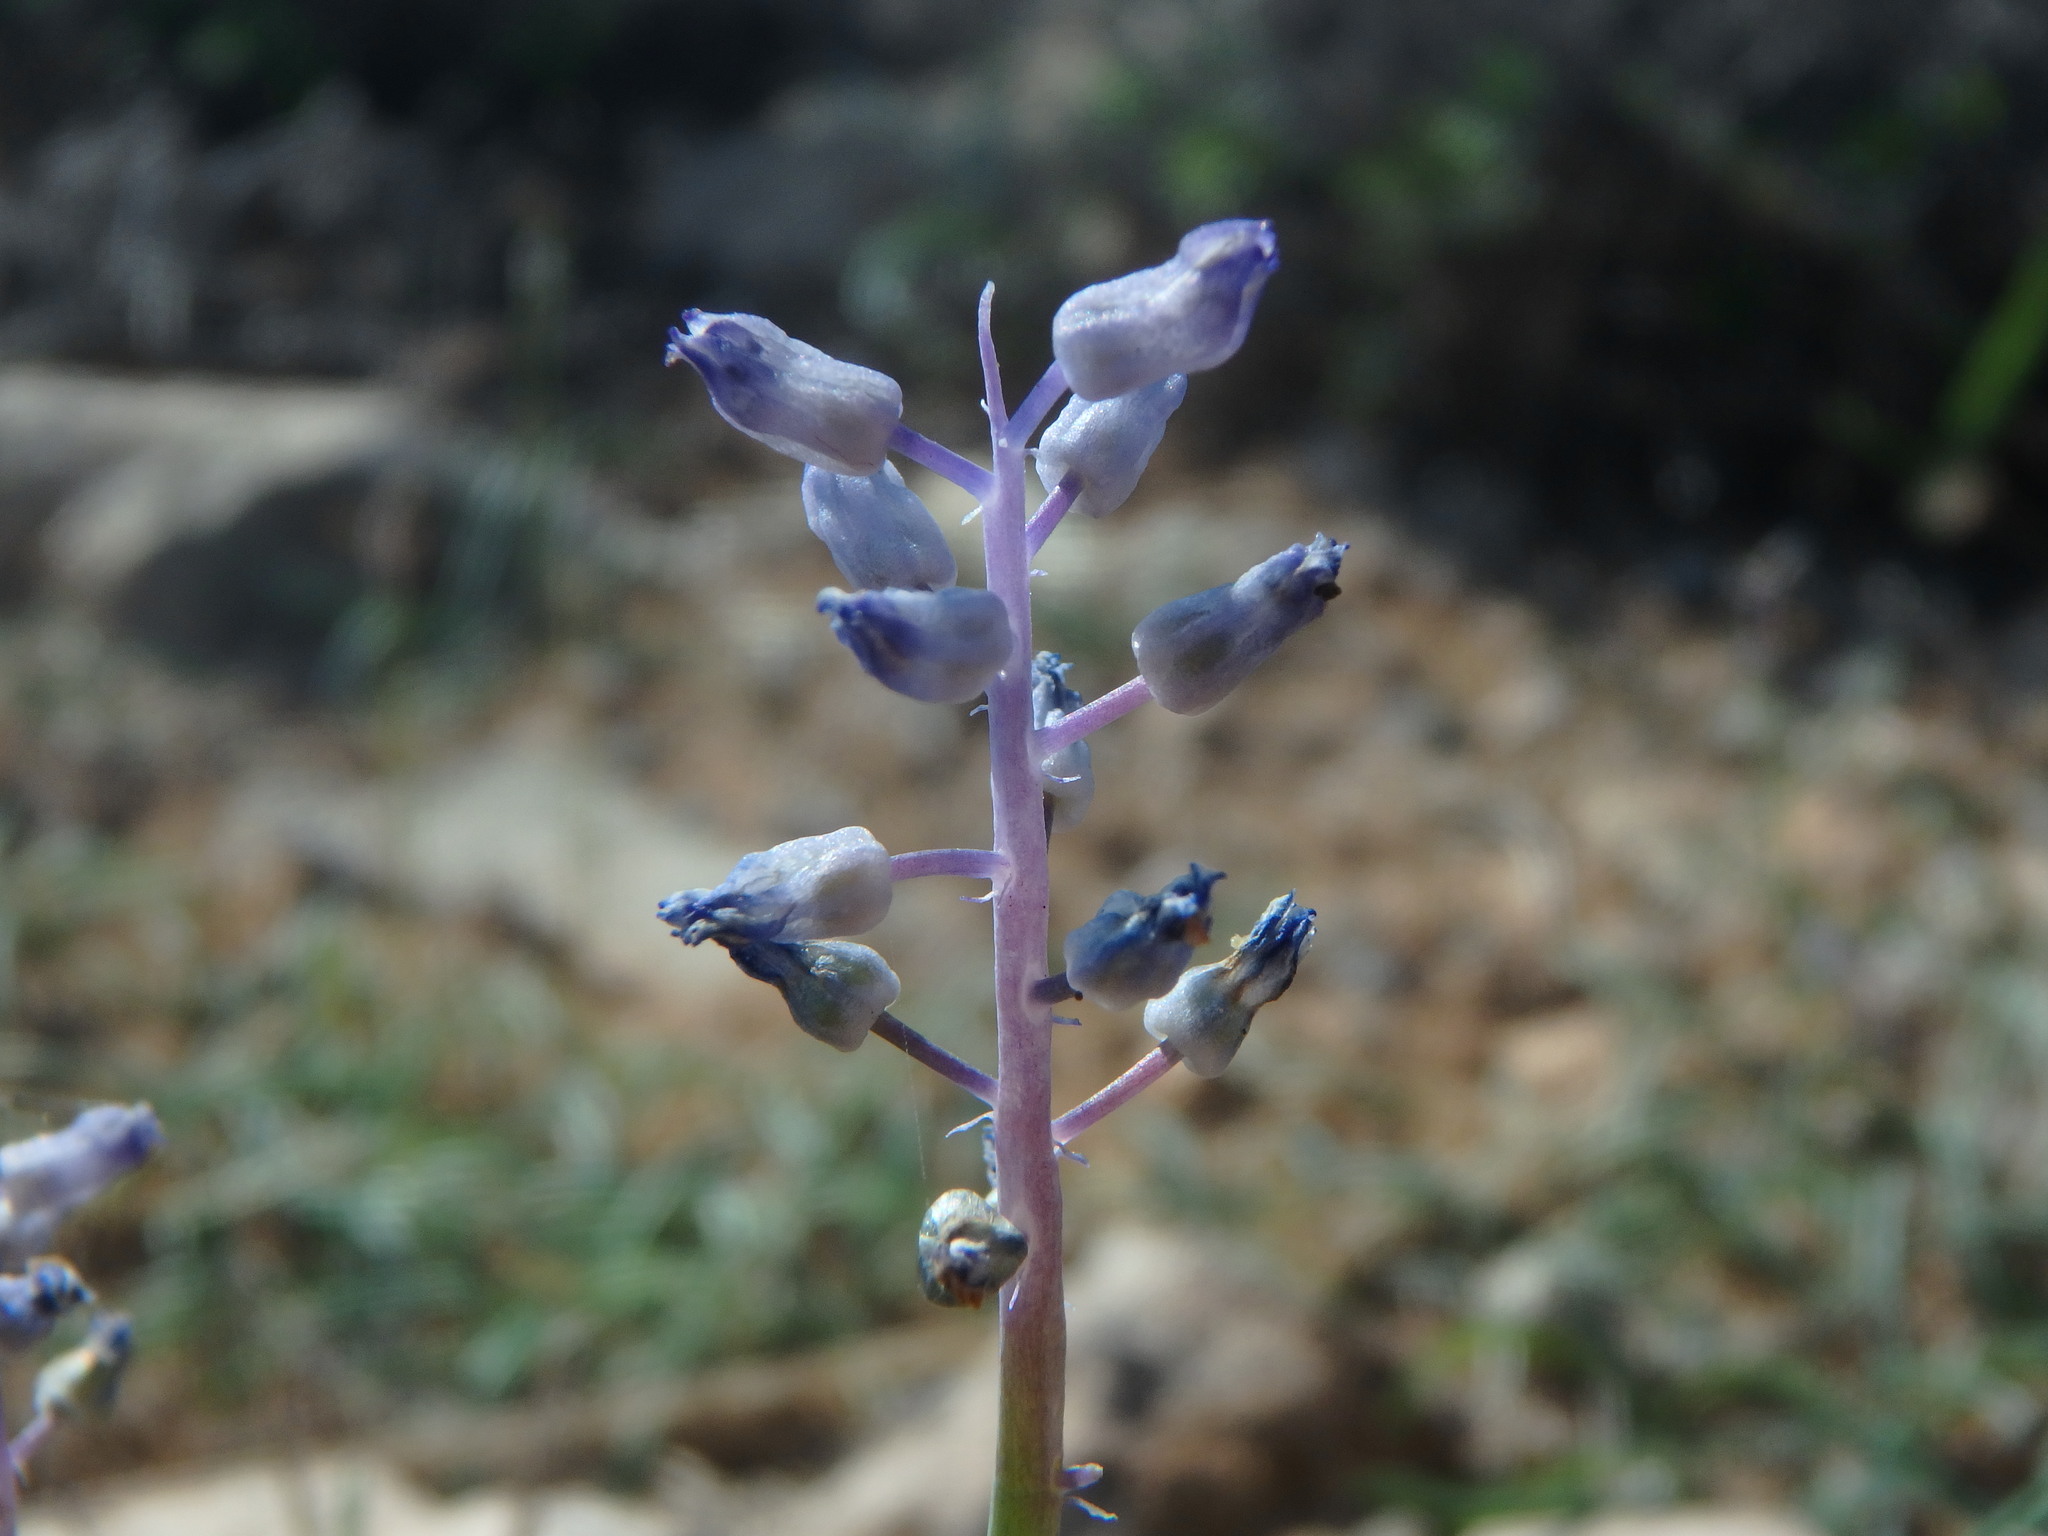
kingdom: Plantae
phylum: Tracheophyta
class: Liliopsida
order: Asparagales
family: Asparagaceae
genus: Muscari
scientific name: Muscari parviflorum
